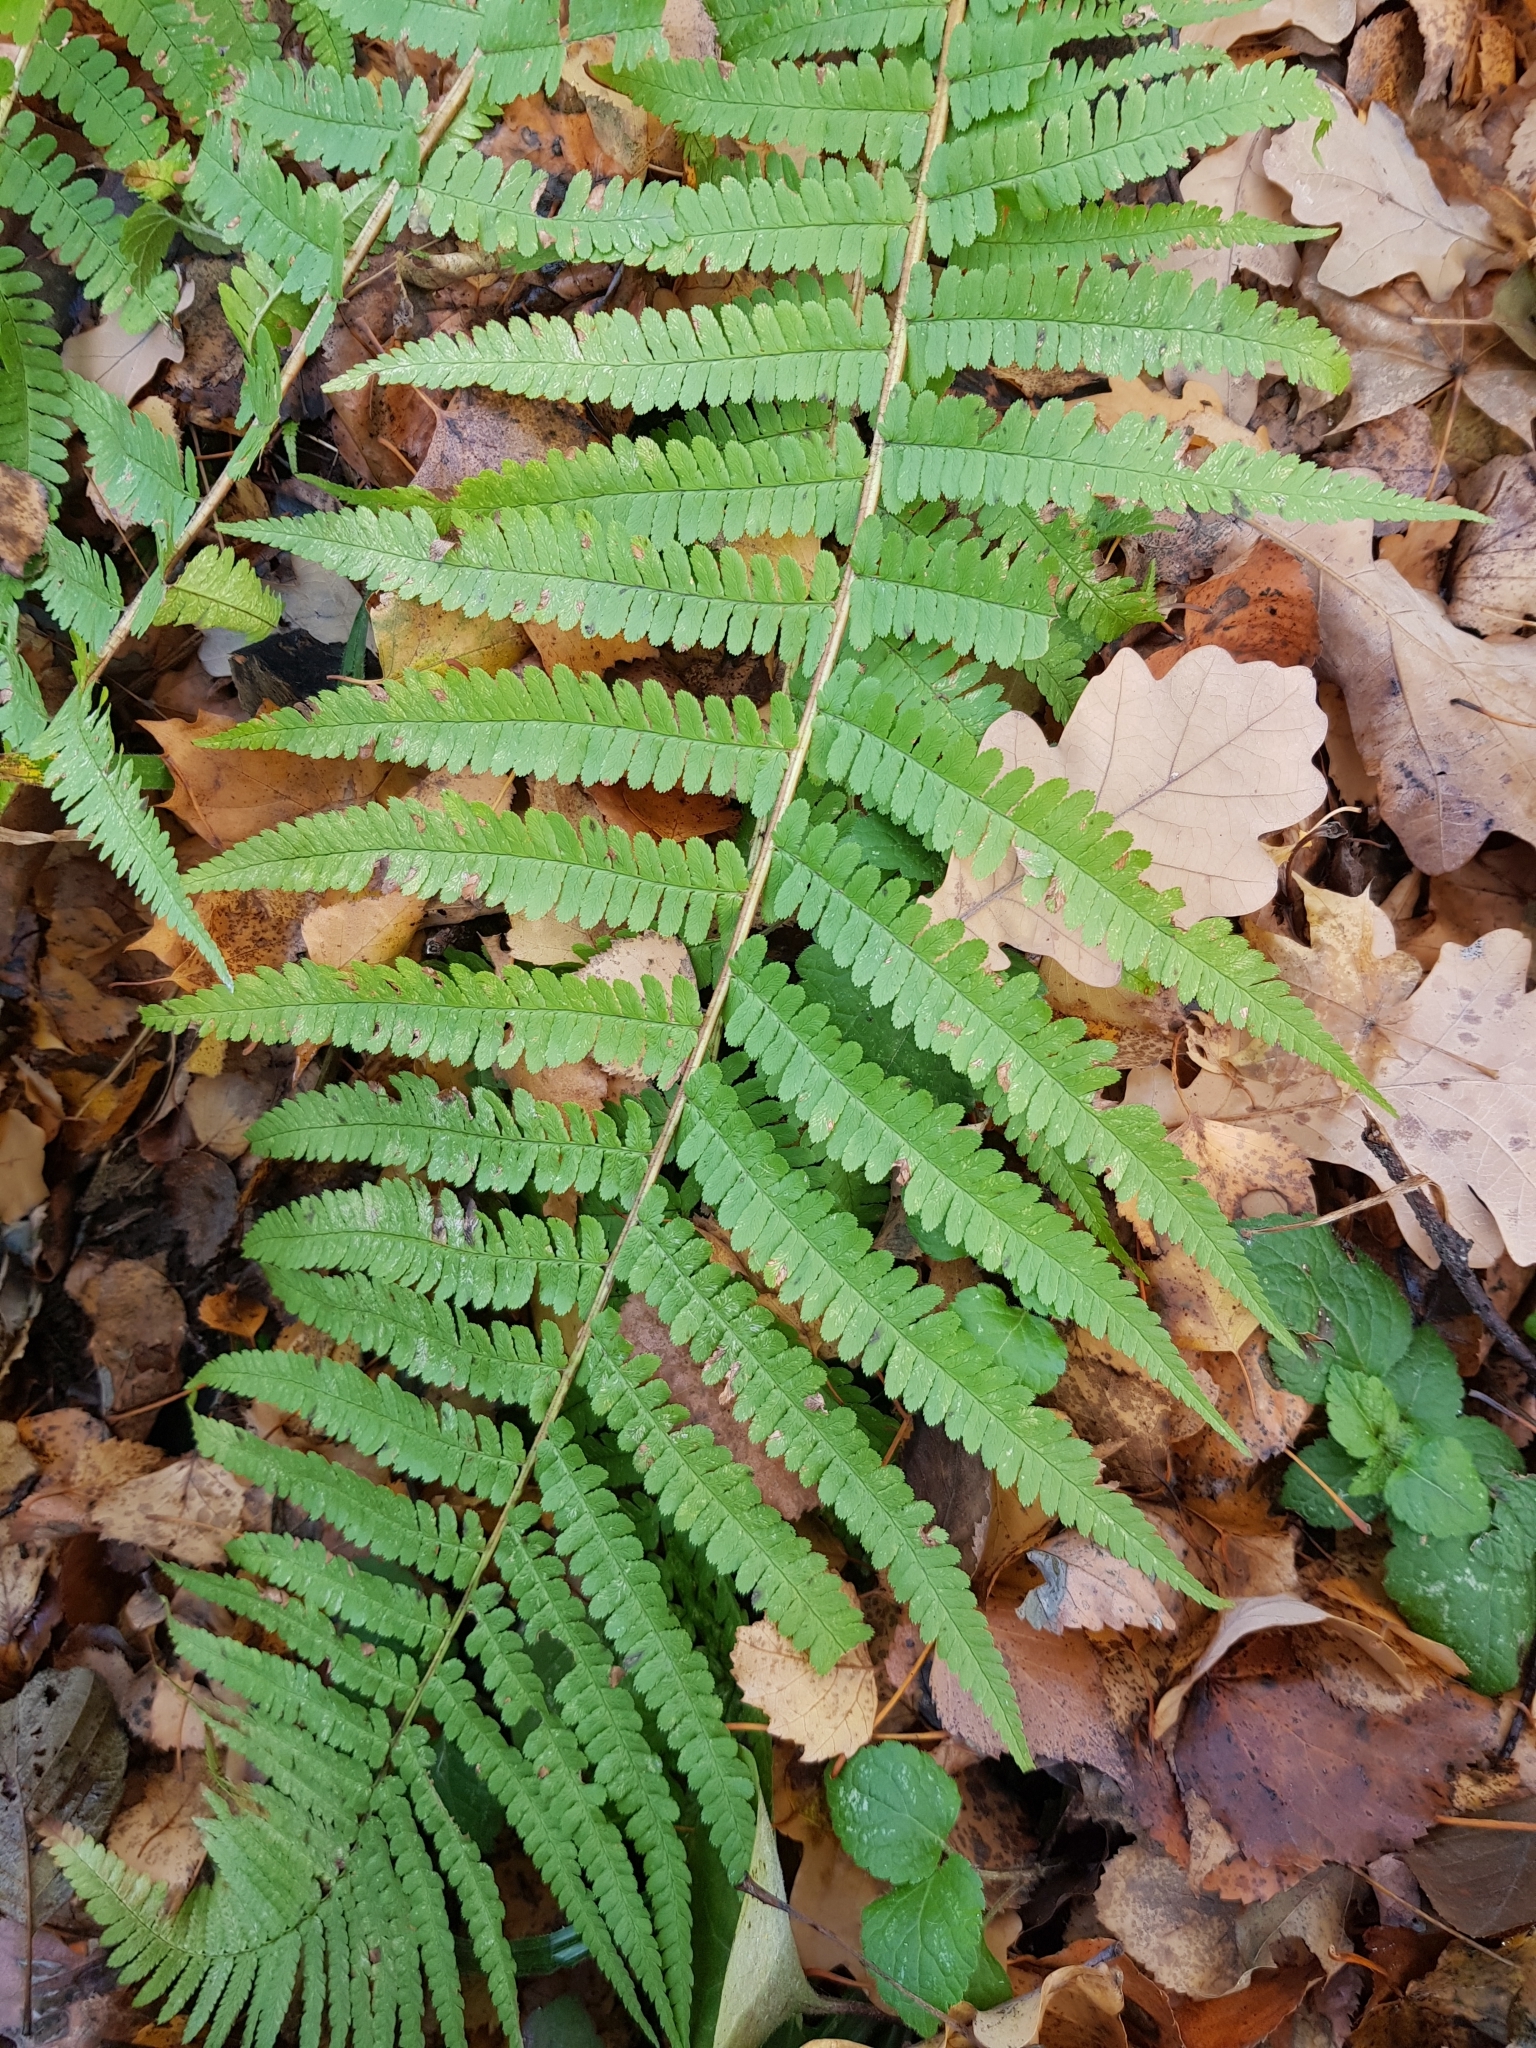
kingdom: Plantae
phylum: Tracheophyta
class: Polypodiopsida
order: Polypodiales
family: Dryopteridaceae
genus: Dryopteris
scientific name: Dryopteris filix-mas
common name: Male fern
